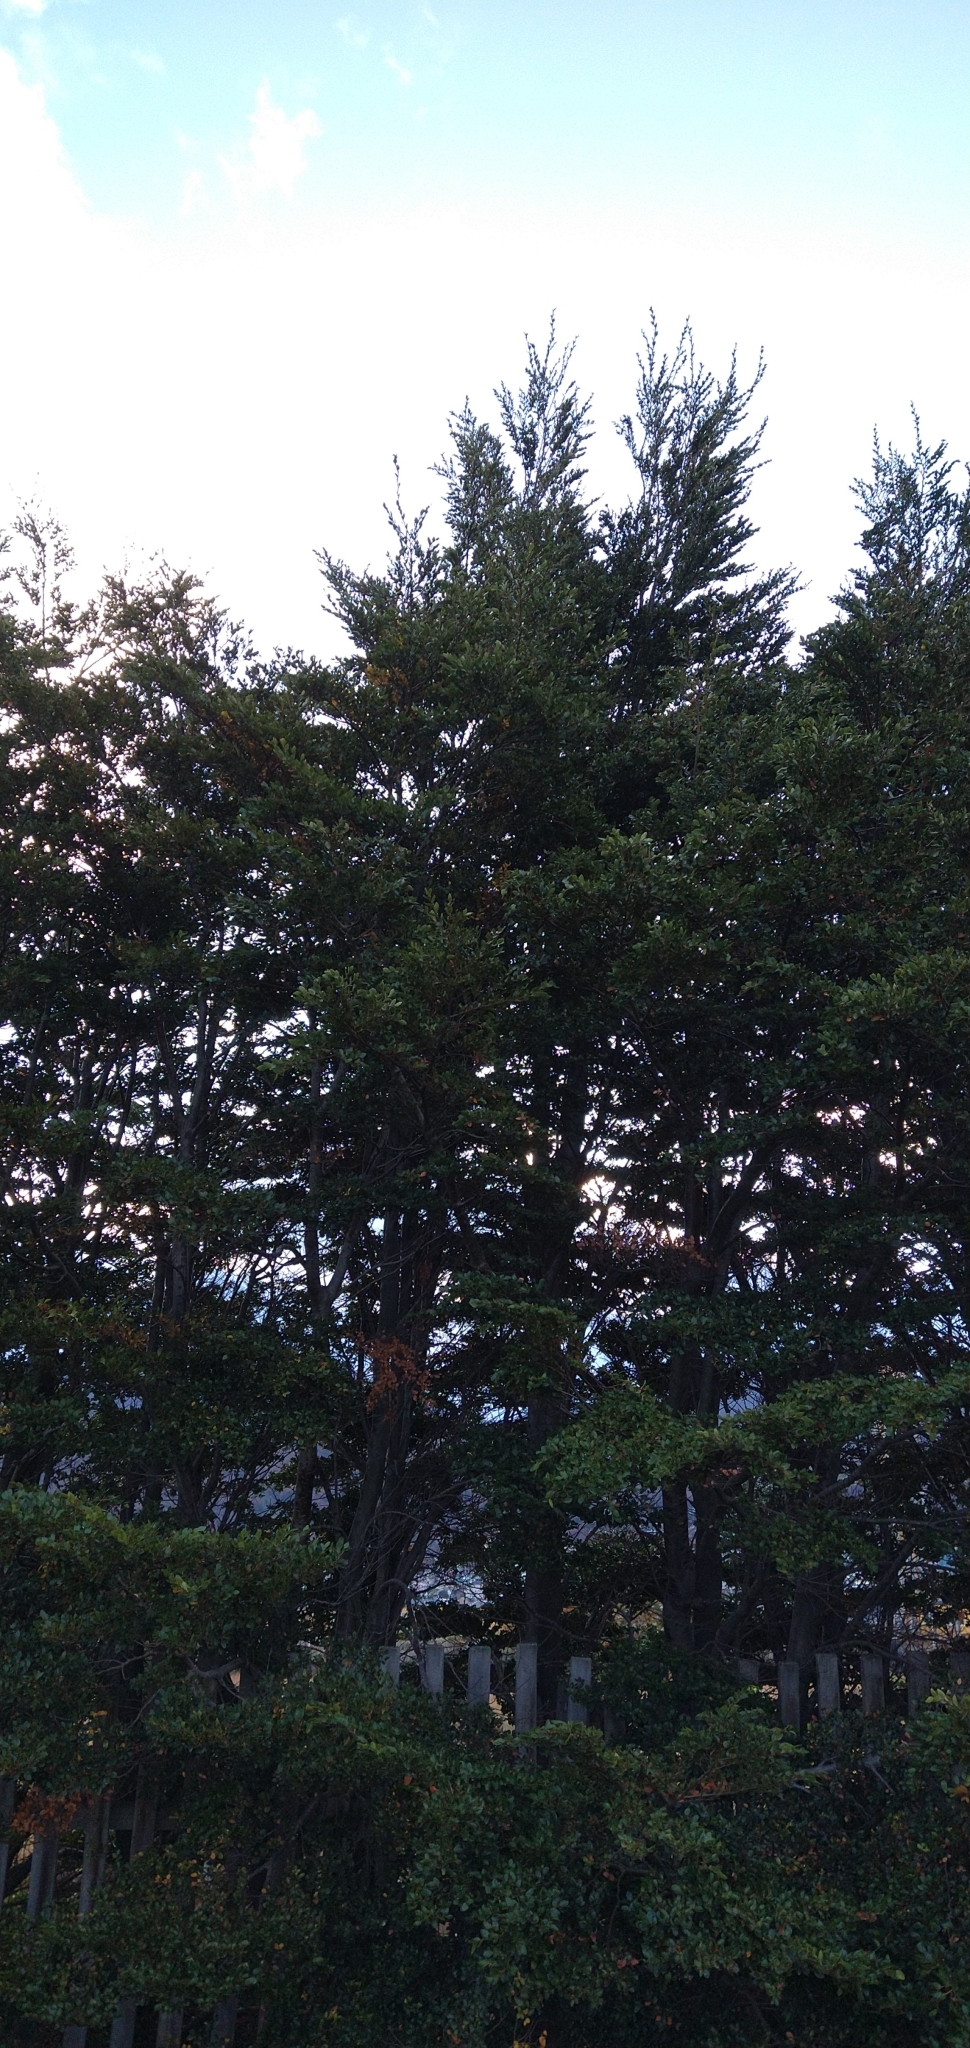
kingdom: Plantae
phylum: Tracheophyta
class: Magnoliopsida
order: Fagales
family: Nothofagaceae
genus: Nothofagus
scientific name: Nothofagus betuloides
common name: Magellan's beech
